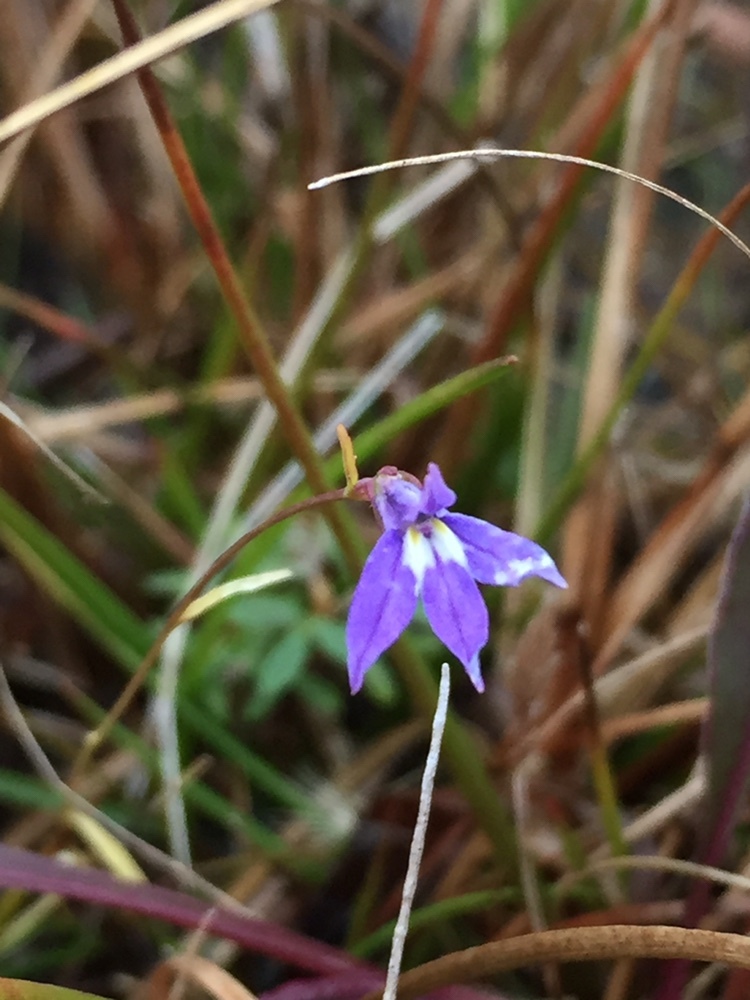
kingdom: Plantae
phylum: Tracheophyta
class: Magnoliopsida
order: Asterales
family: Campanulaceae
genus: Lobelia
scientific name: Lobelia kalmii
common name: Kalm's lobelia
